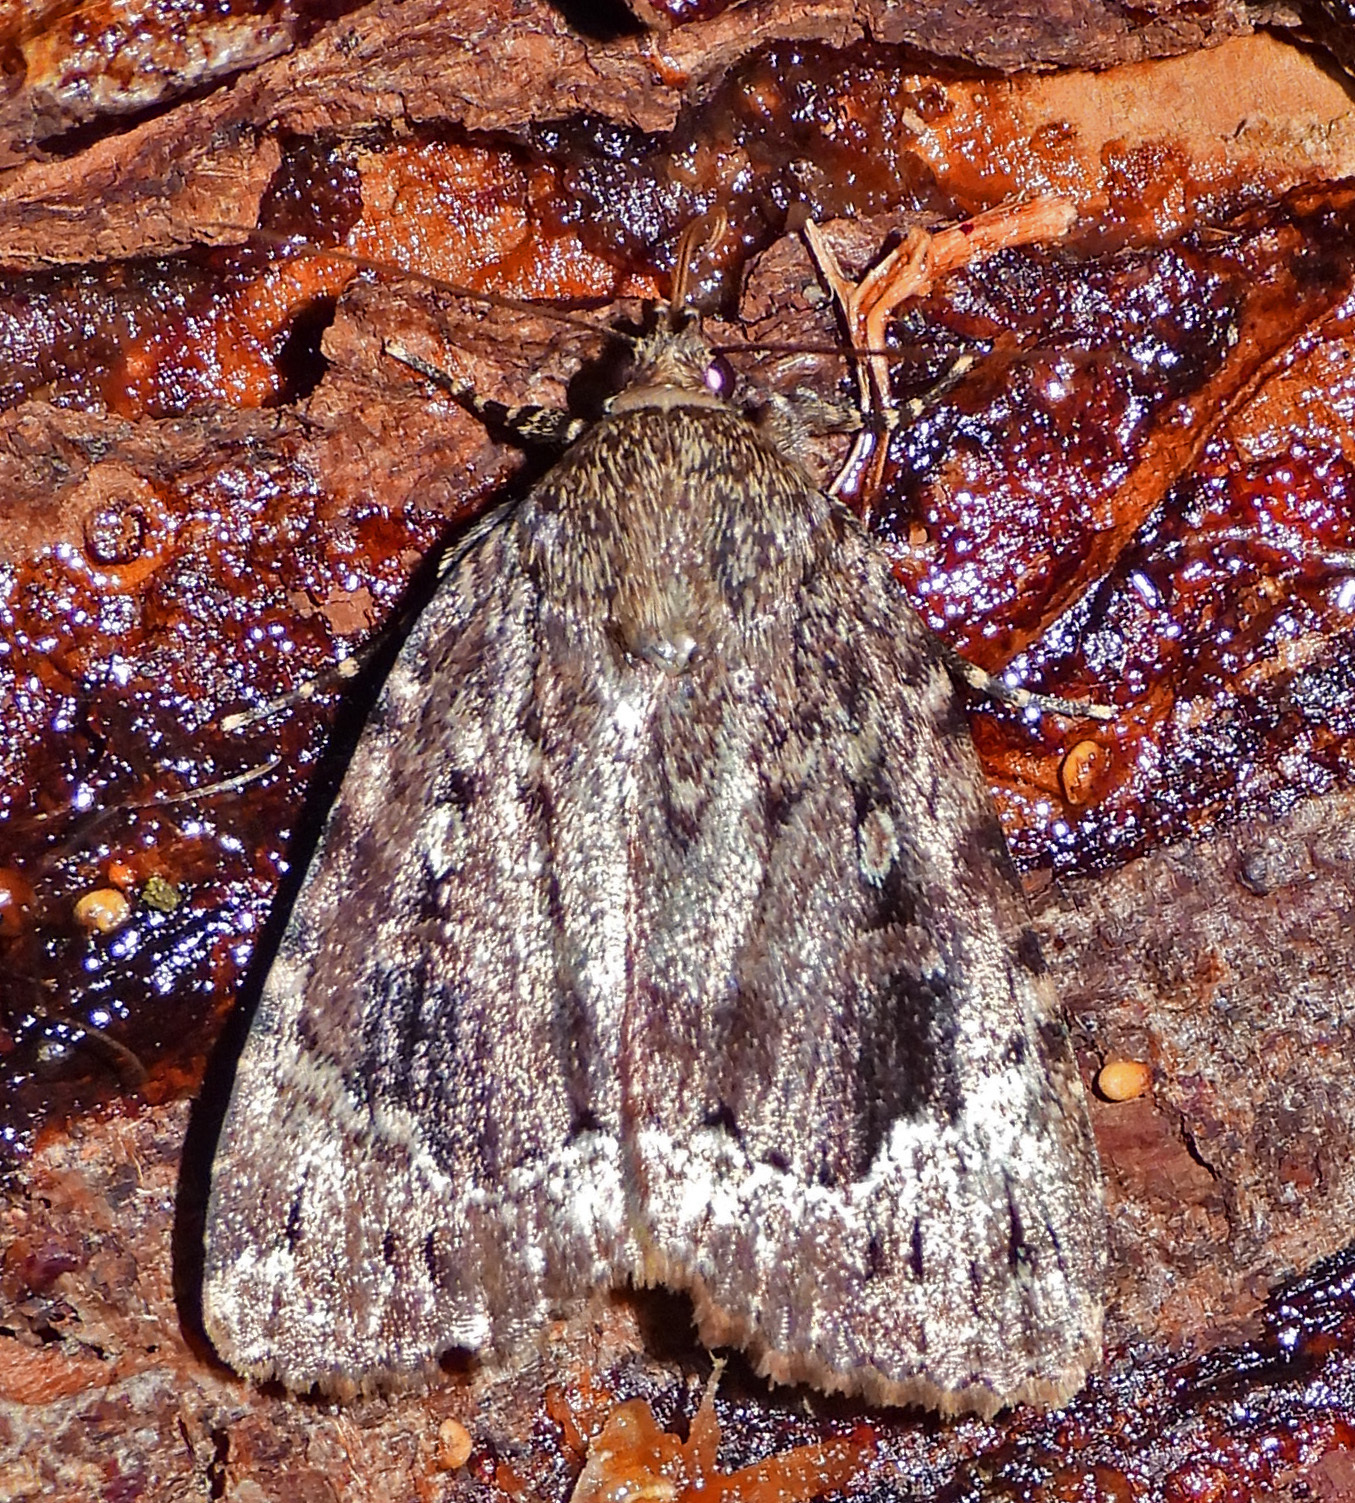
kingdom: Animalia
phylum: Arthropoda
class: Insecta
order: Lepidoptera
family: Noctuidae
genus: Amphipyra
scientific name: Amphipyra pyramidoides
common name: American copper underwing
